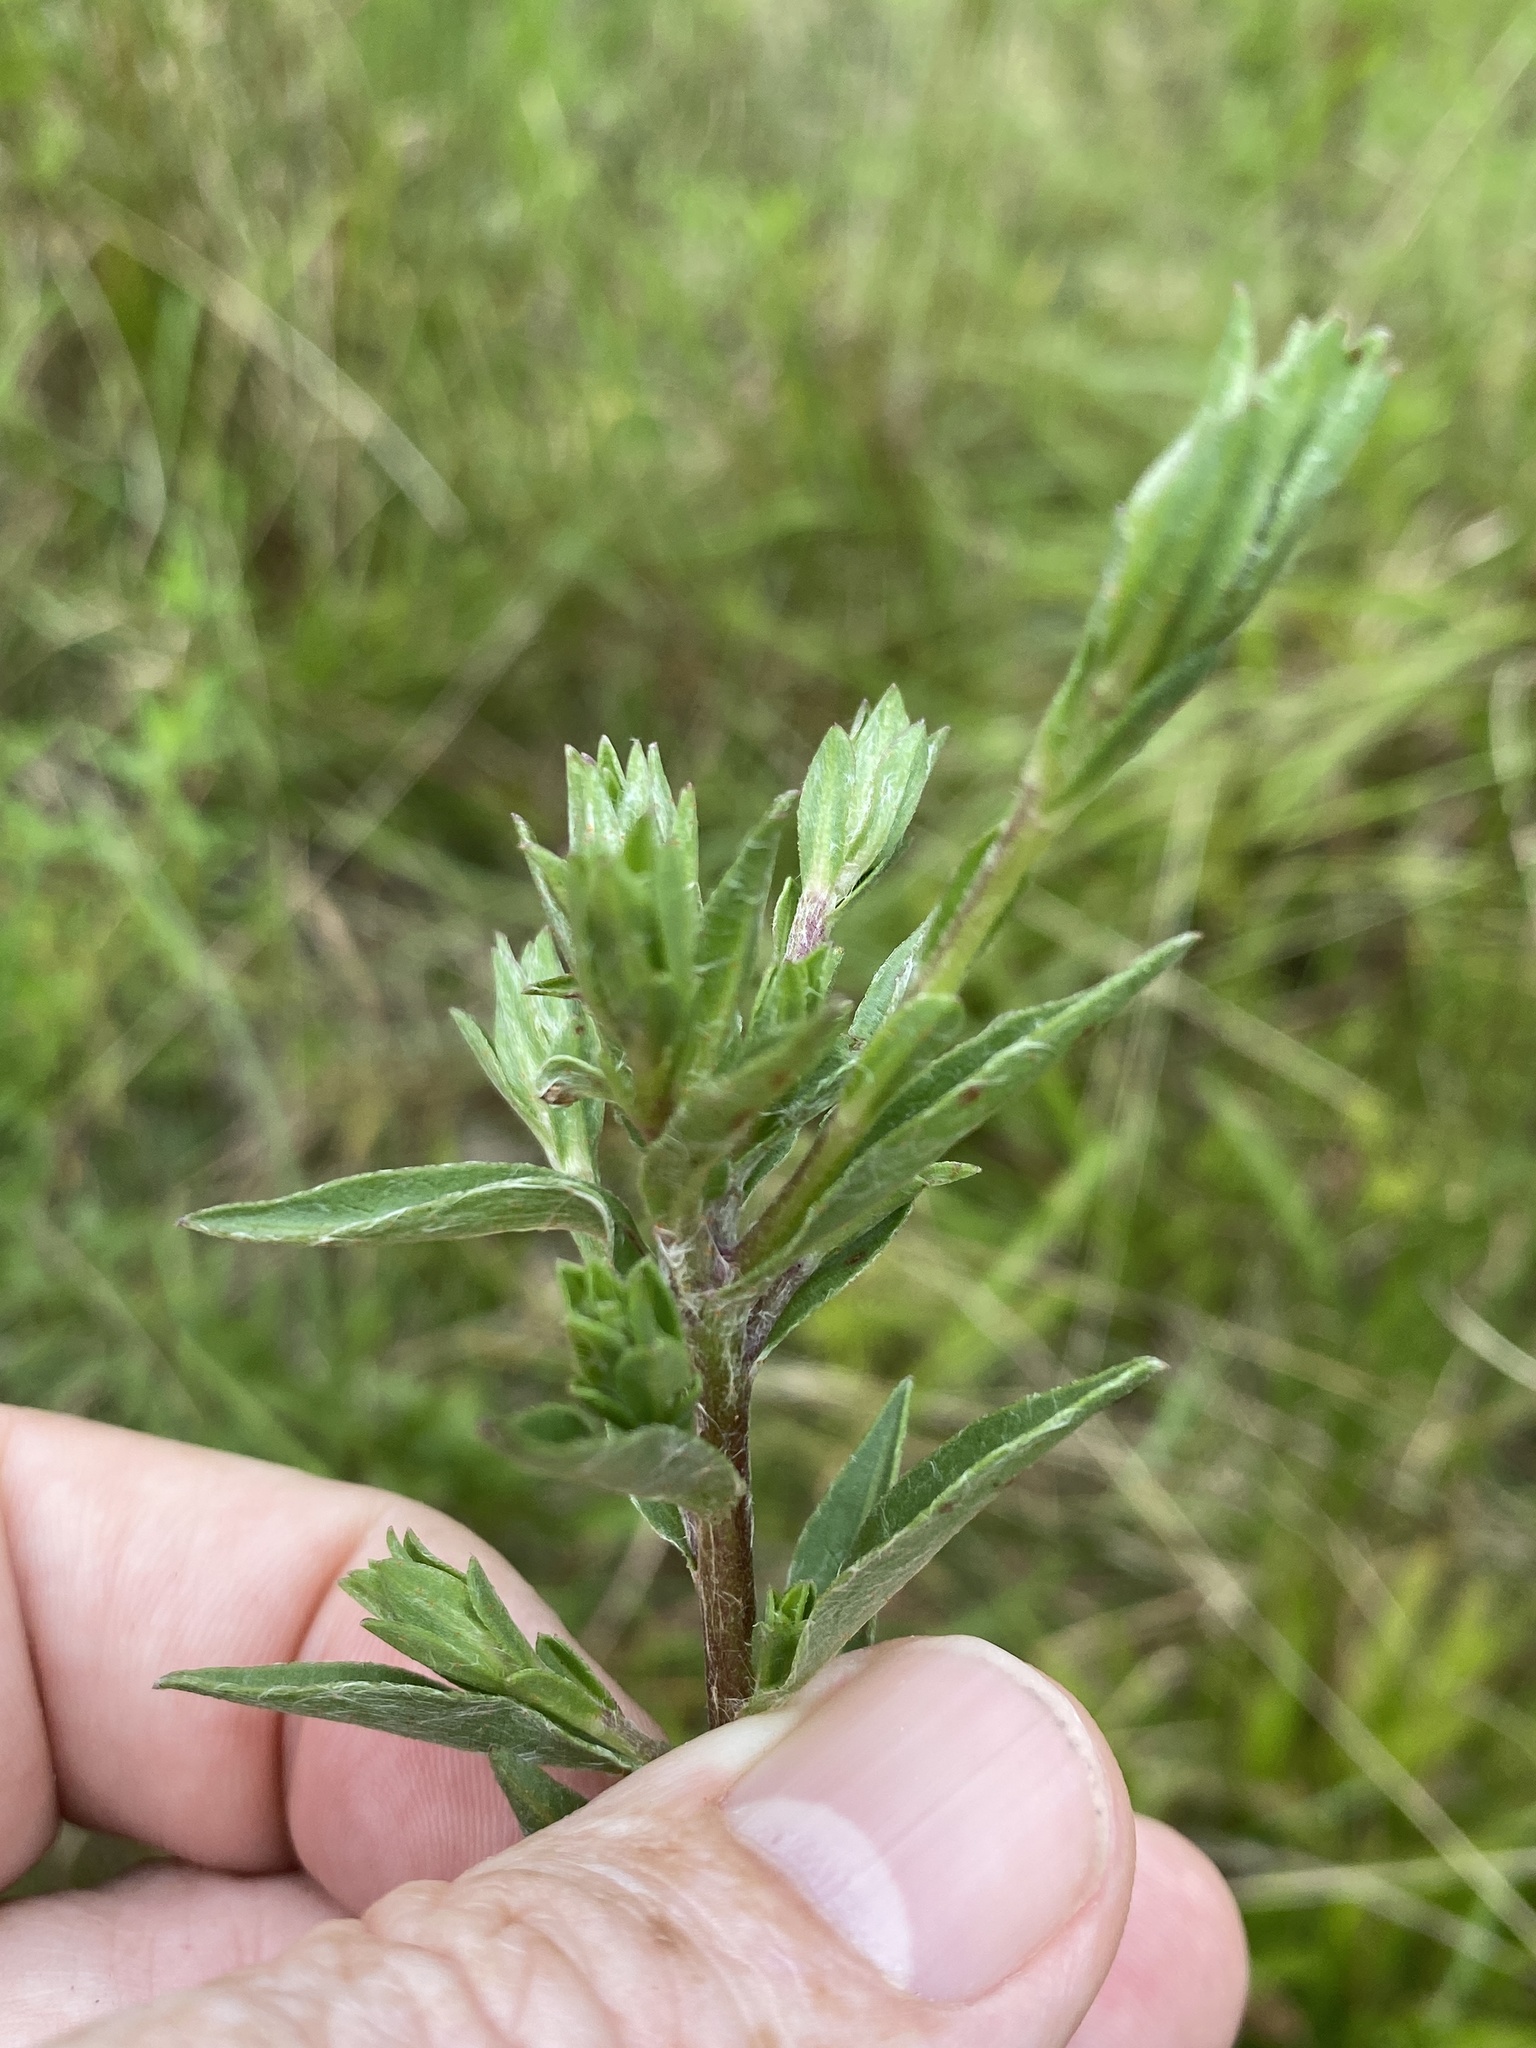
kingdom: Plantae
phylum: Tracheophyta
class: Magnoliopsida
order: Asterales
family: Asteraceae
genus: Chrysopsis
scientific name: Chrysopsis mariana
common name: Maryland golden-aster
